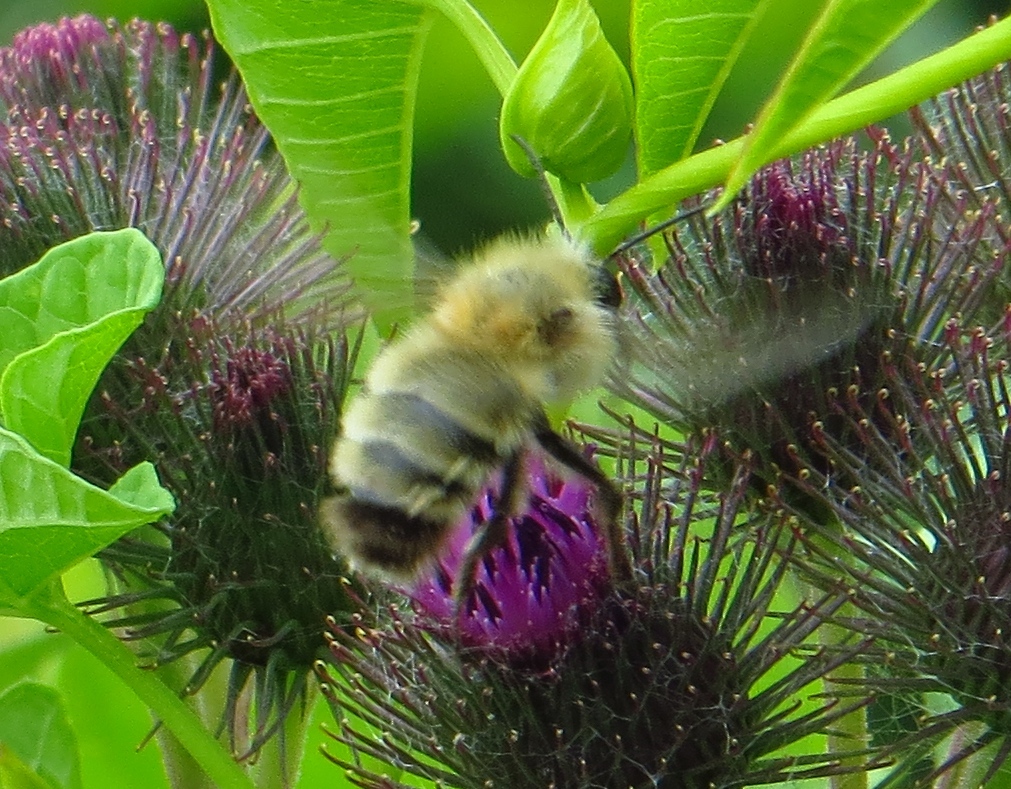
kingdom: Animalia
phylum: Arthropoda
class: Insecta
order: Hymenoptera
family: Apidae
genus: Bombus
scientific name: Bombus perplexus
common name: Confusing bumble bee
